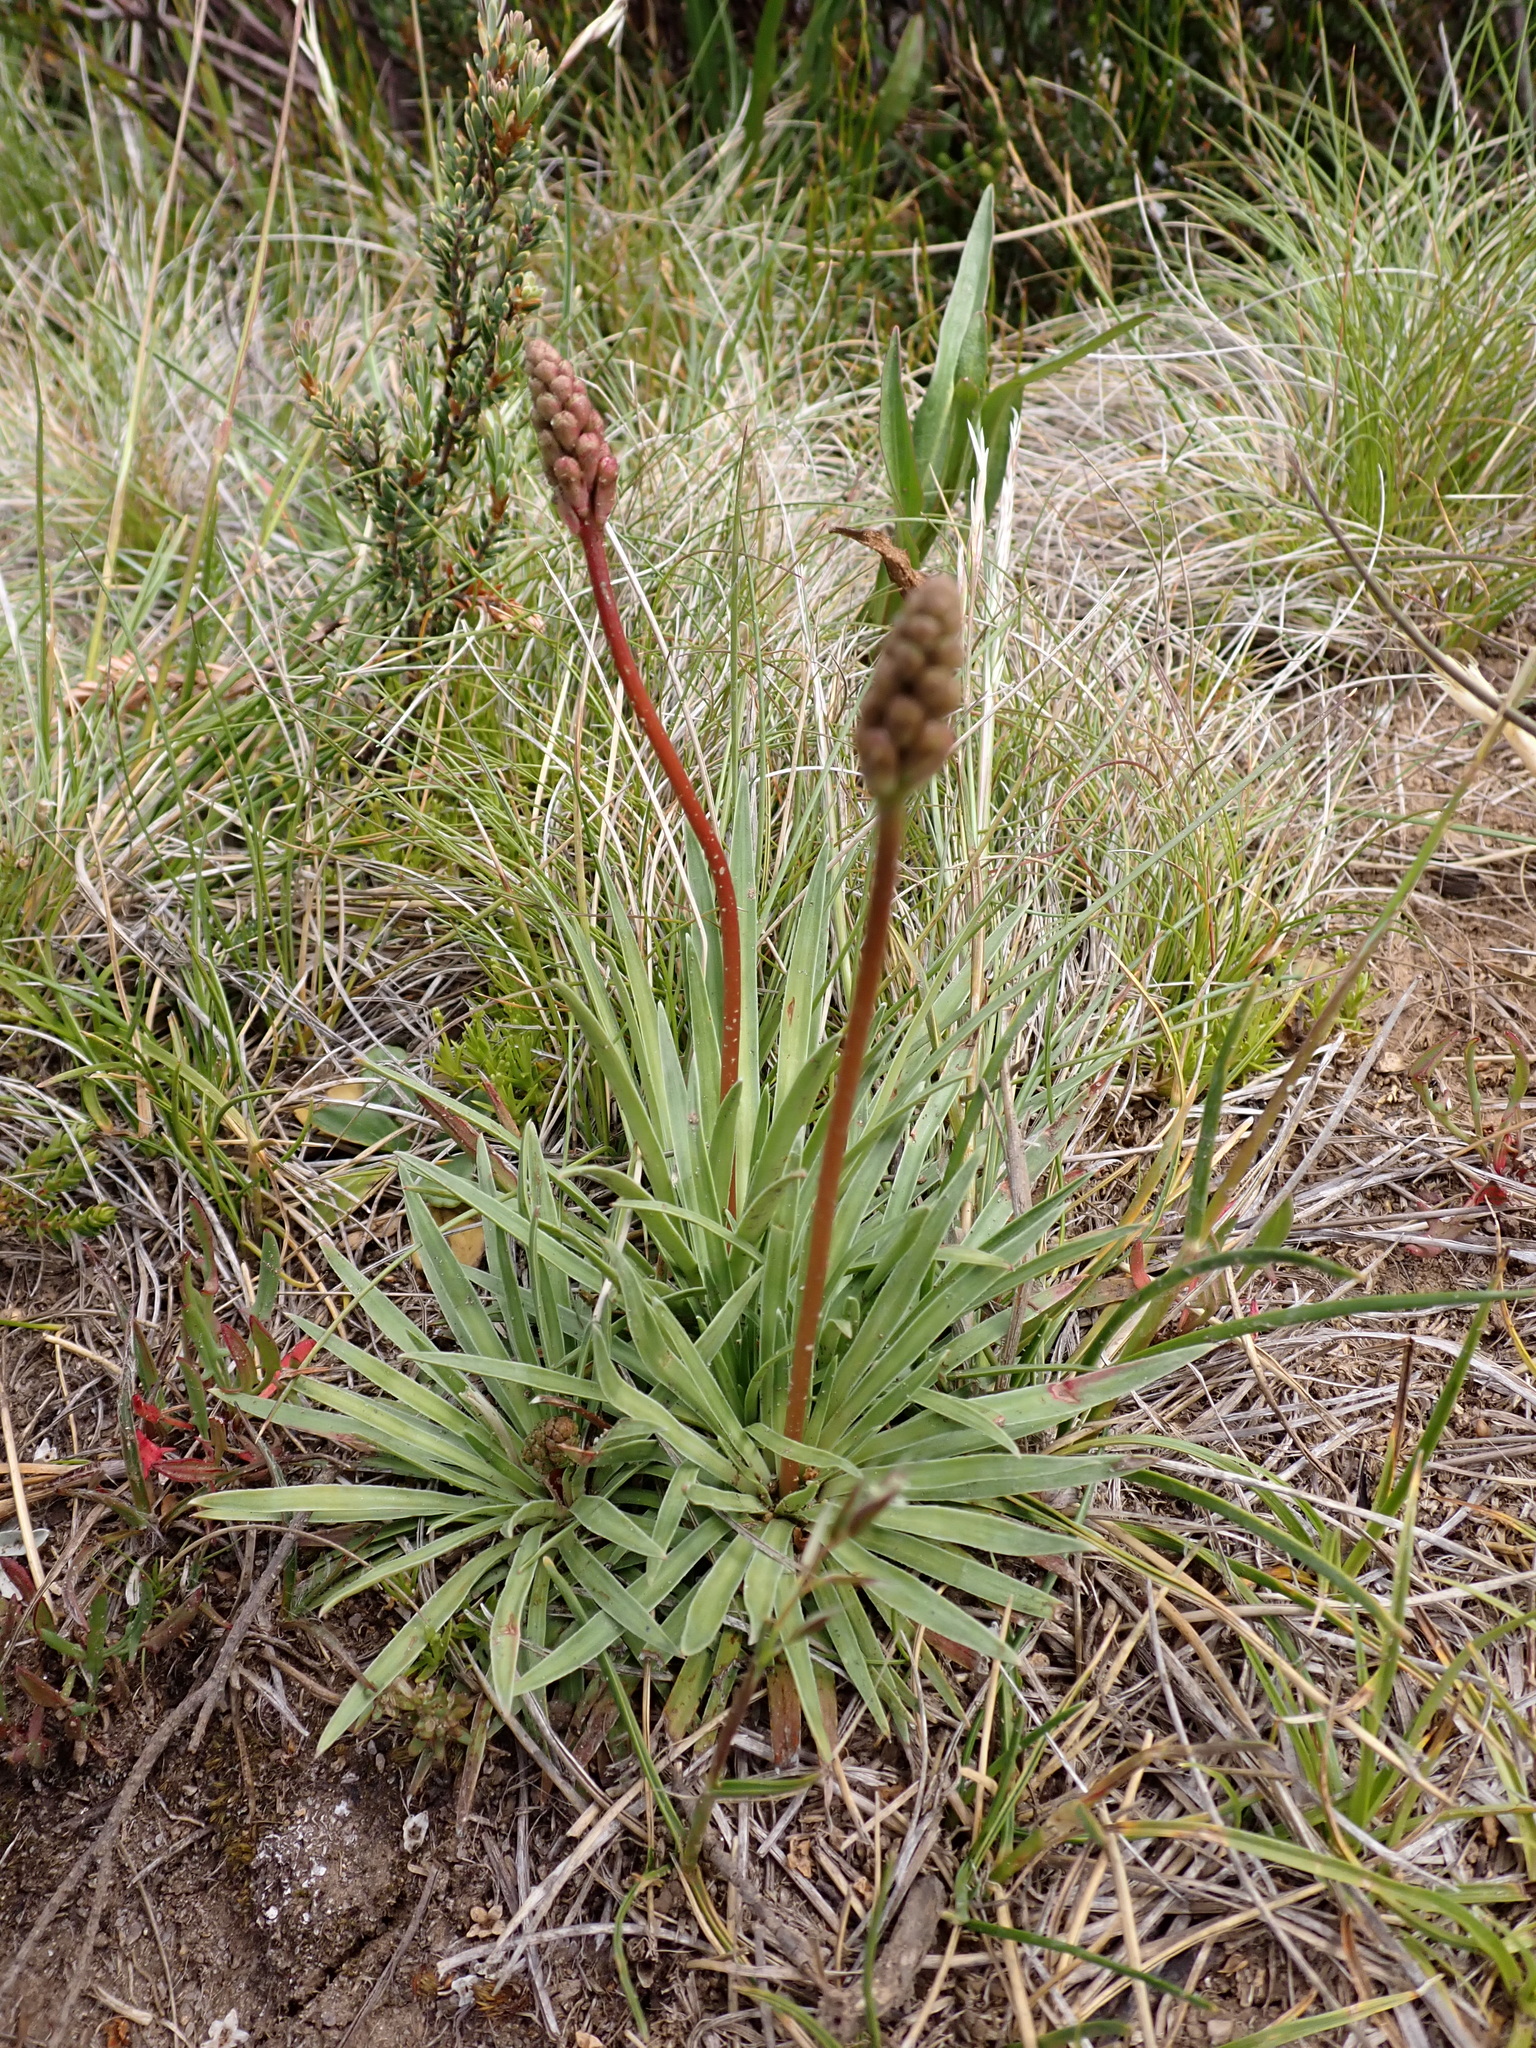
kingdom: Plantae
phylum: Tracheophyta
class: Magnoliopsida
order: Asterales
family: Stylidiaceae
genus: Stylidium
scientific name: Stylidium montanum
